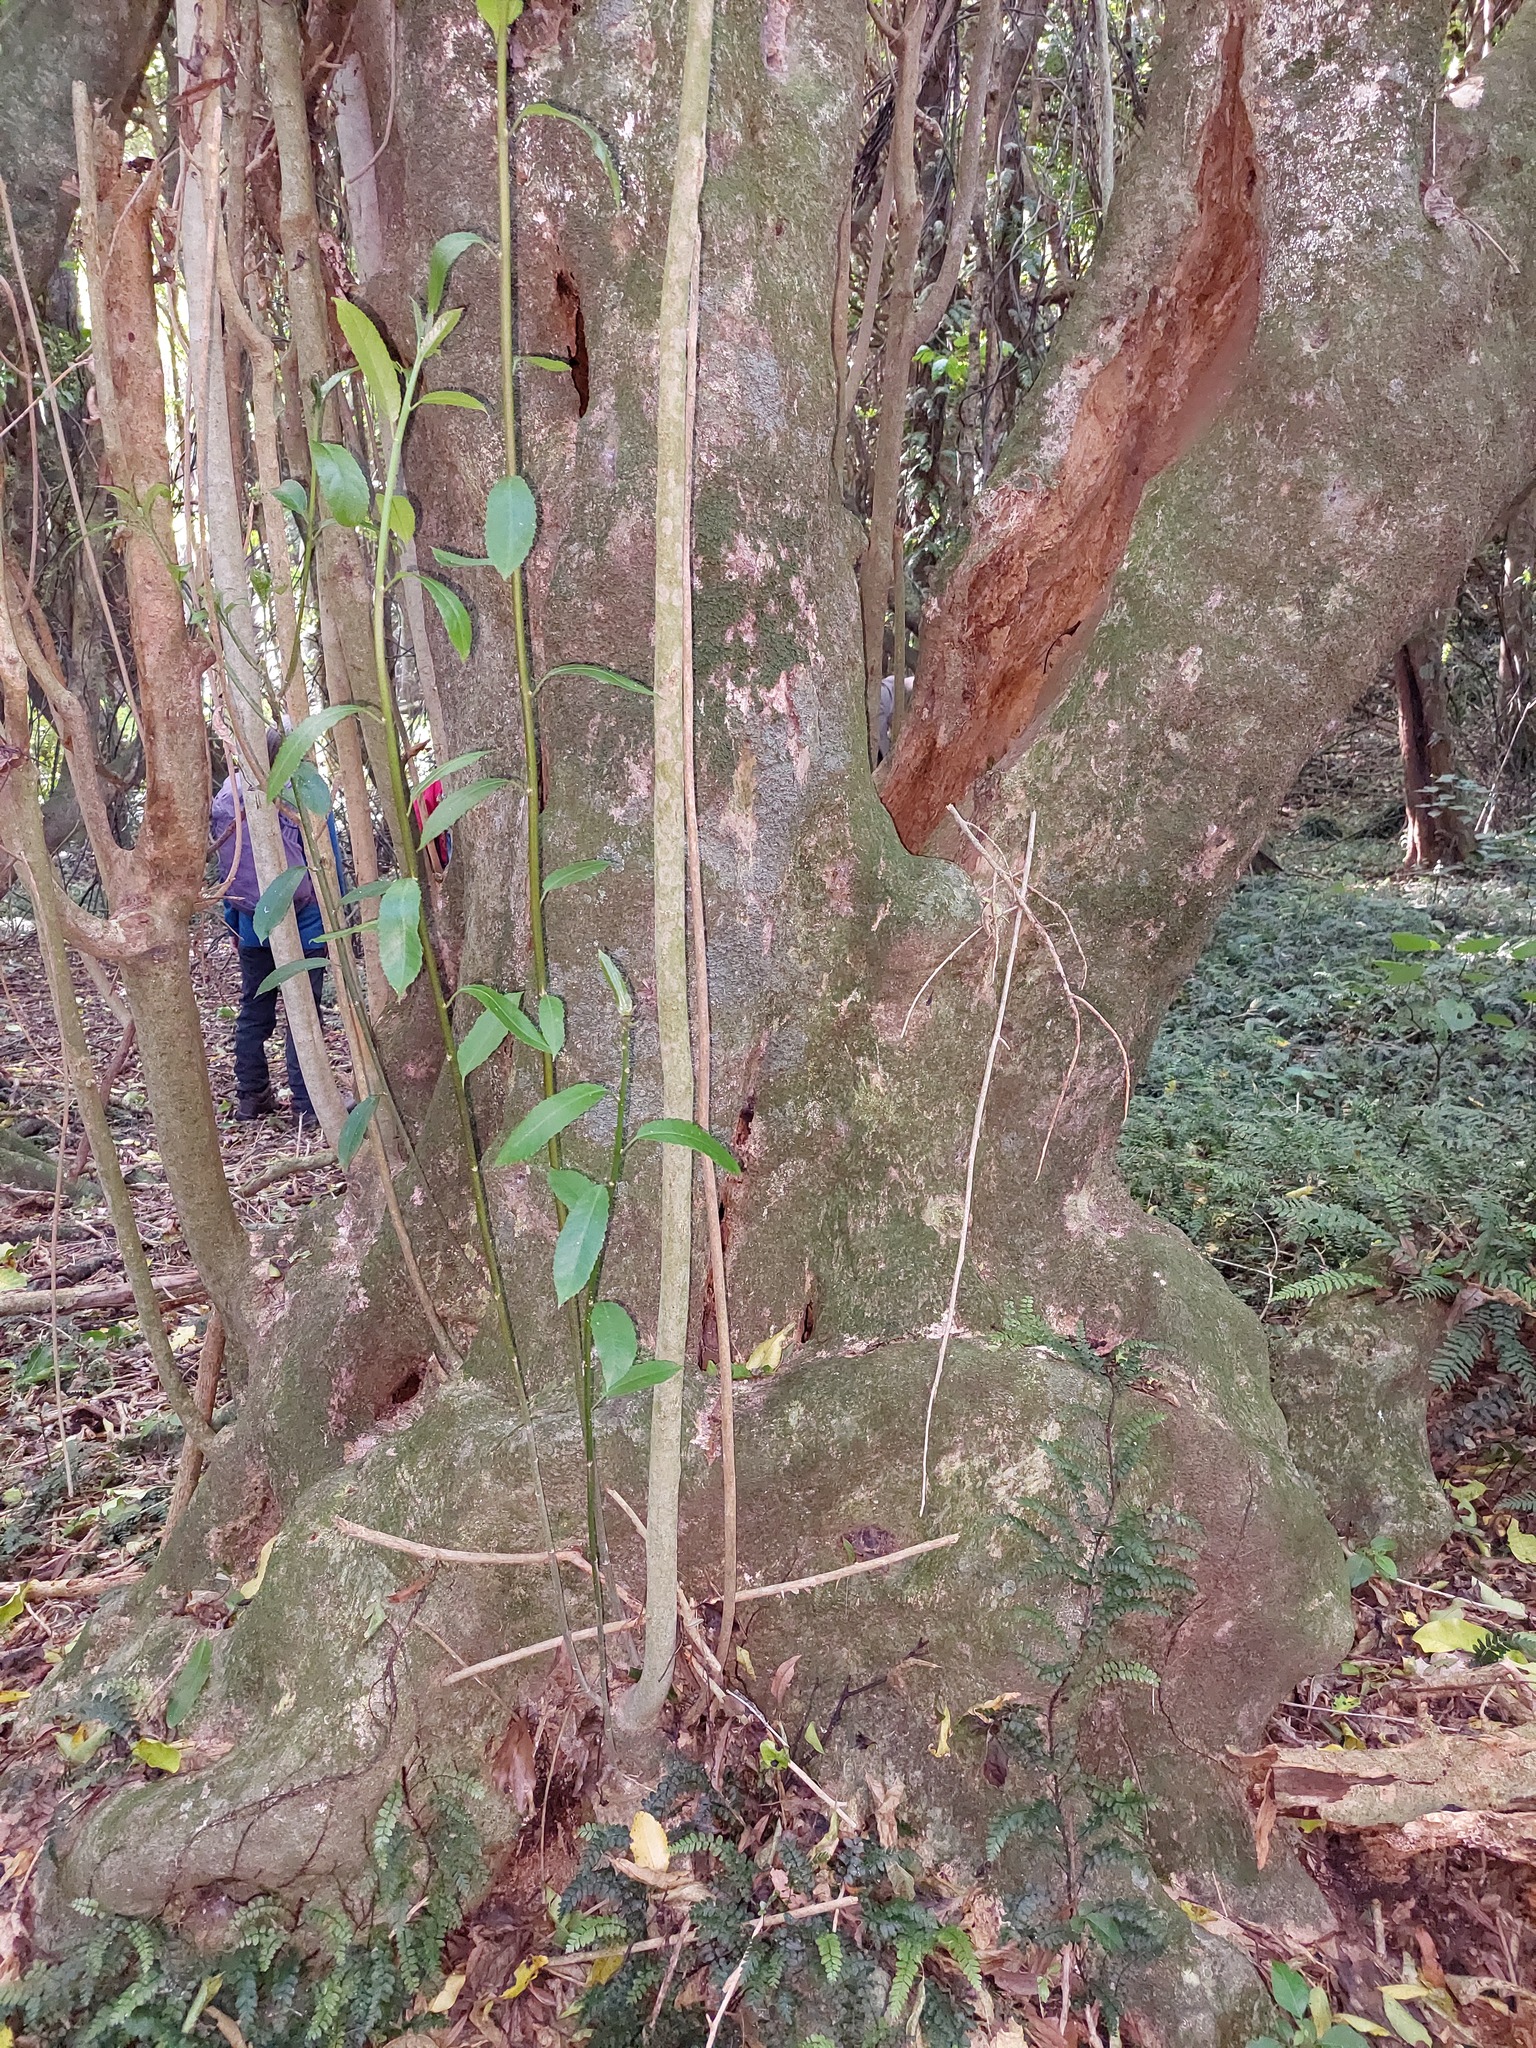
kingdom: Plantae
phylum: Tracheophyta
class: Magnoliopsida
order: Malpighiales
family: Violaceae
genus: Melicytus
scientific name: Melicytus ramiflorus
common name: Mahoe
